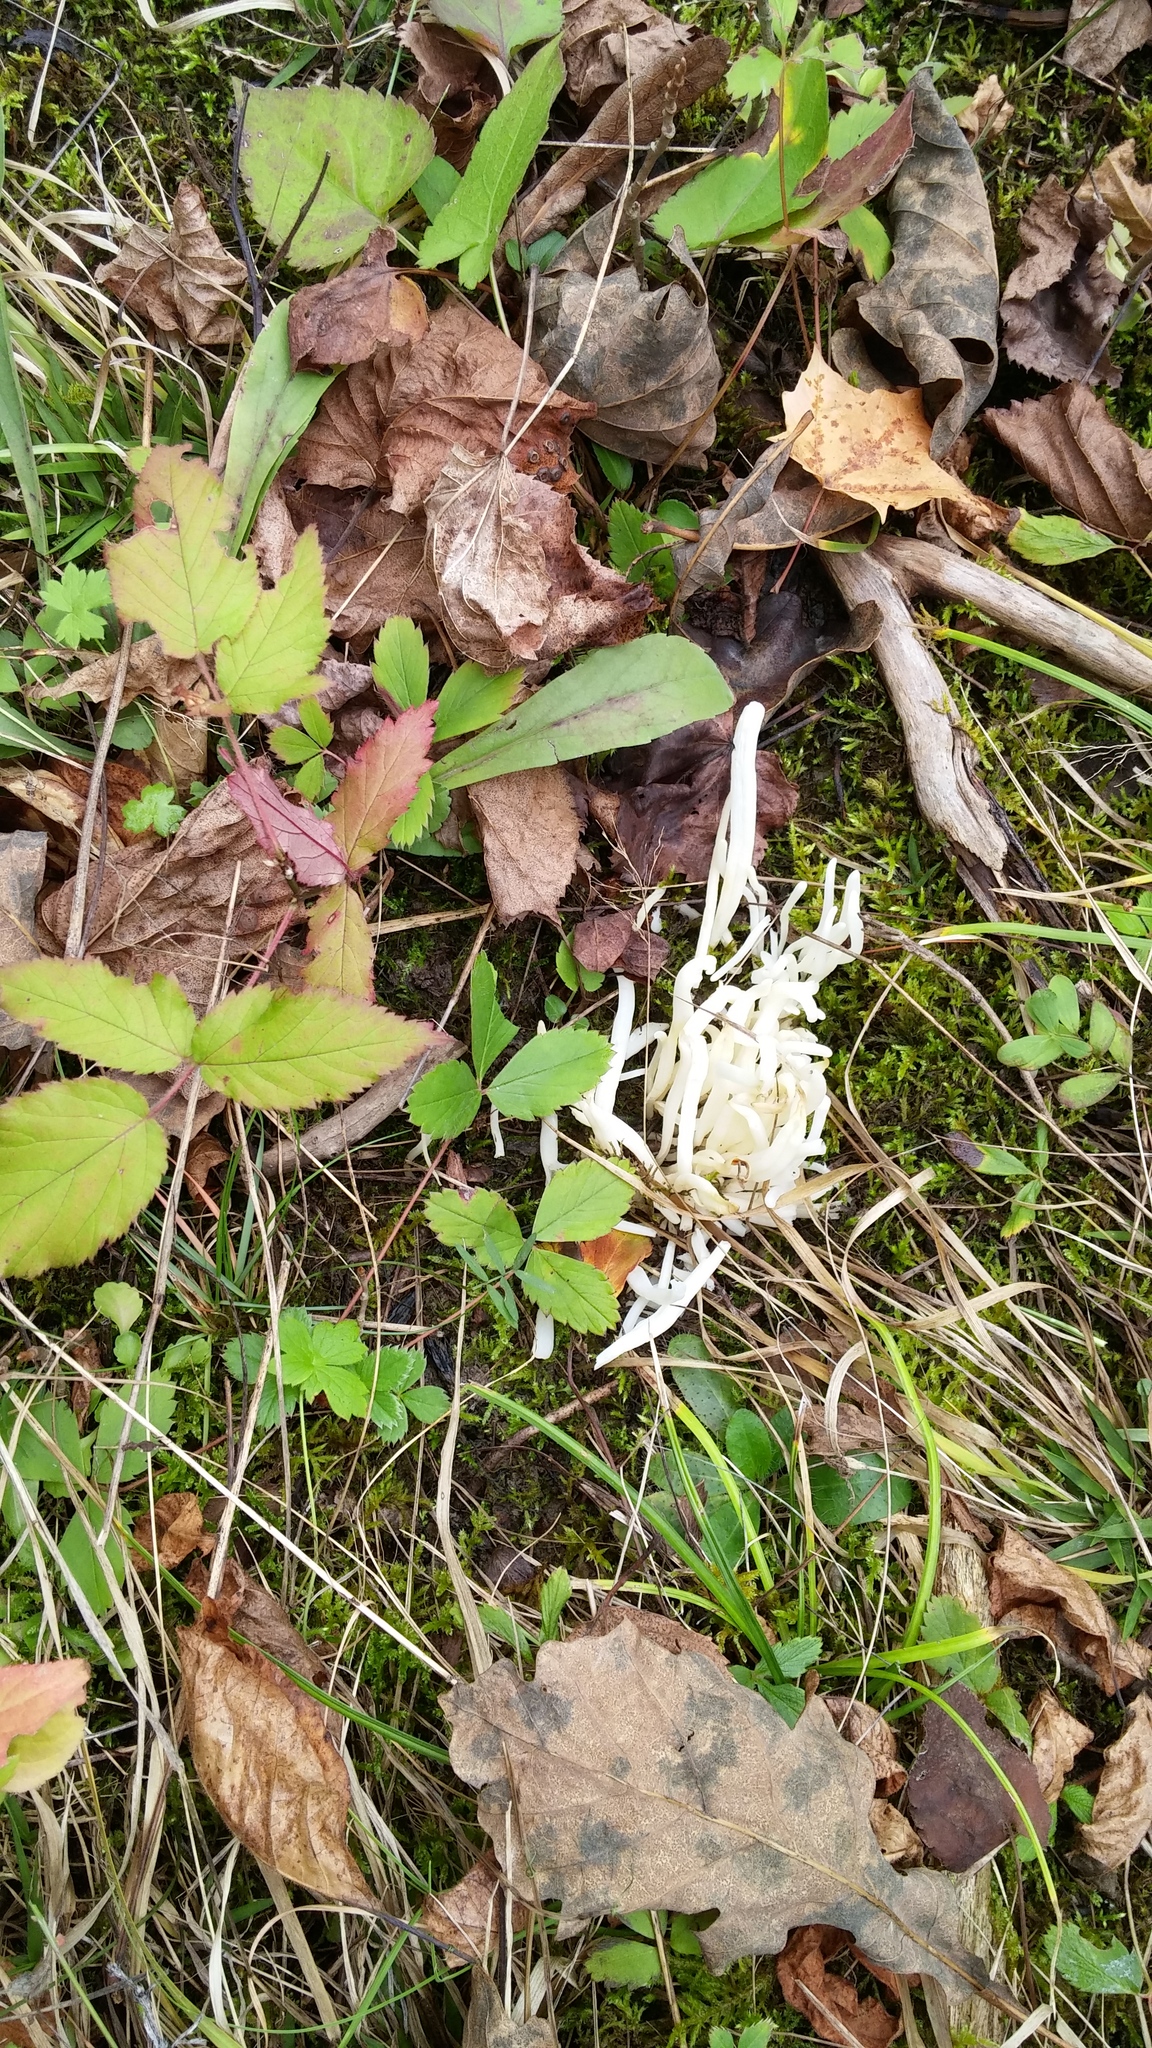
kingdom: Fungi
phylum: Basidiomycota
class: Agaricomycetes
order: Agaricales
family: Clavariaceae
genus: Clavaria
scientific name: Clavaria fragilis
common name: White spindles
